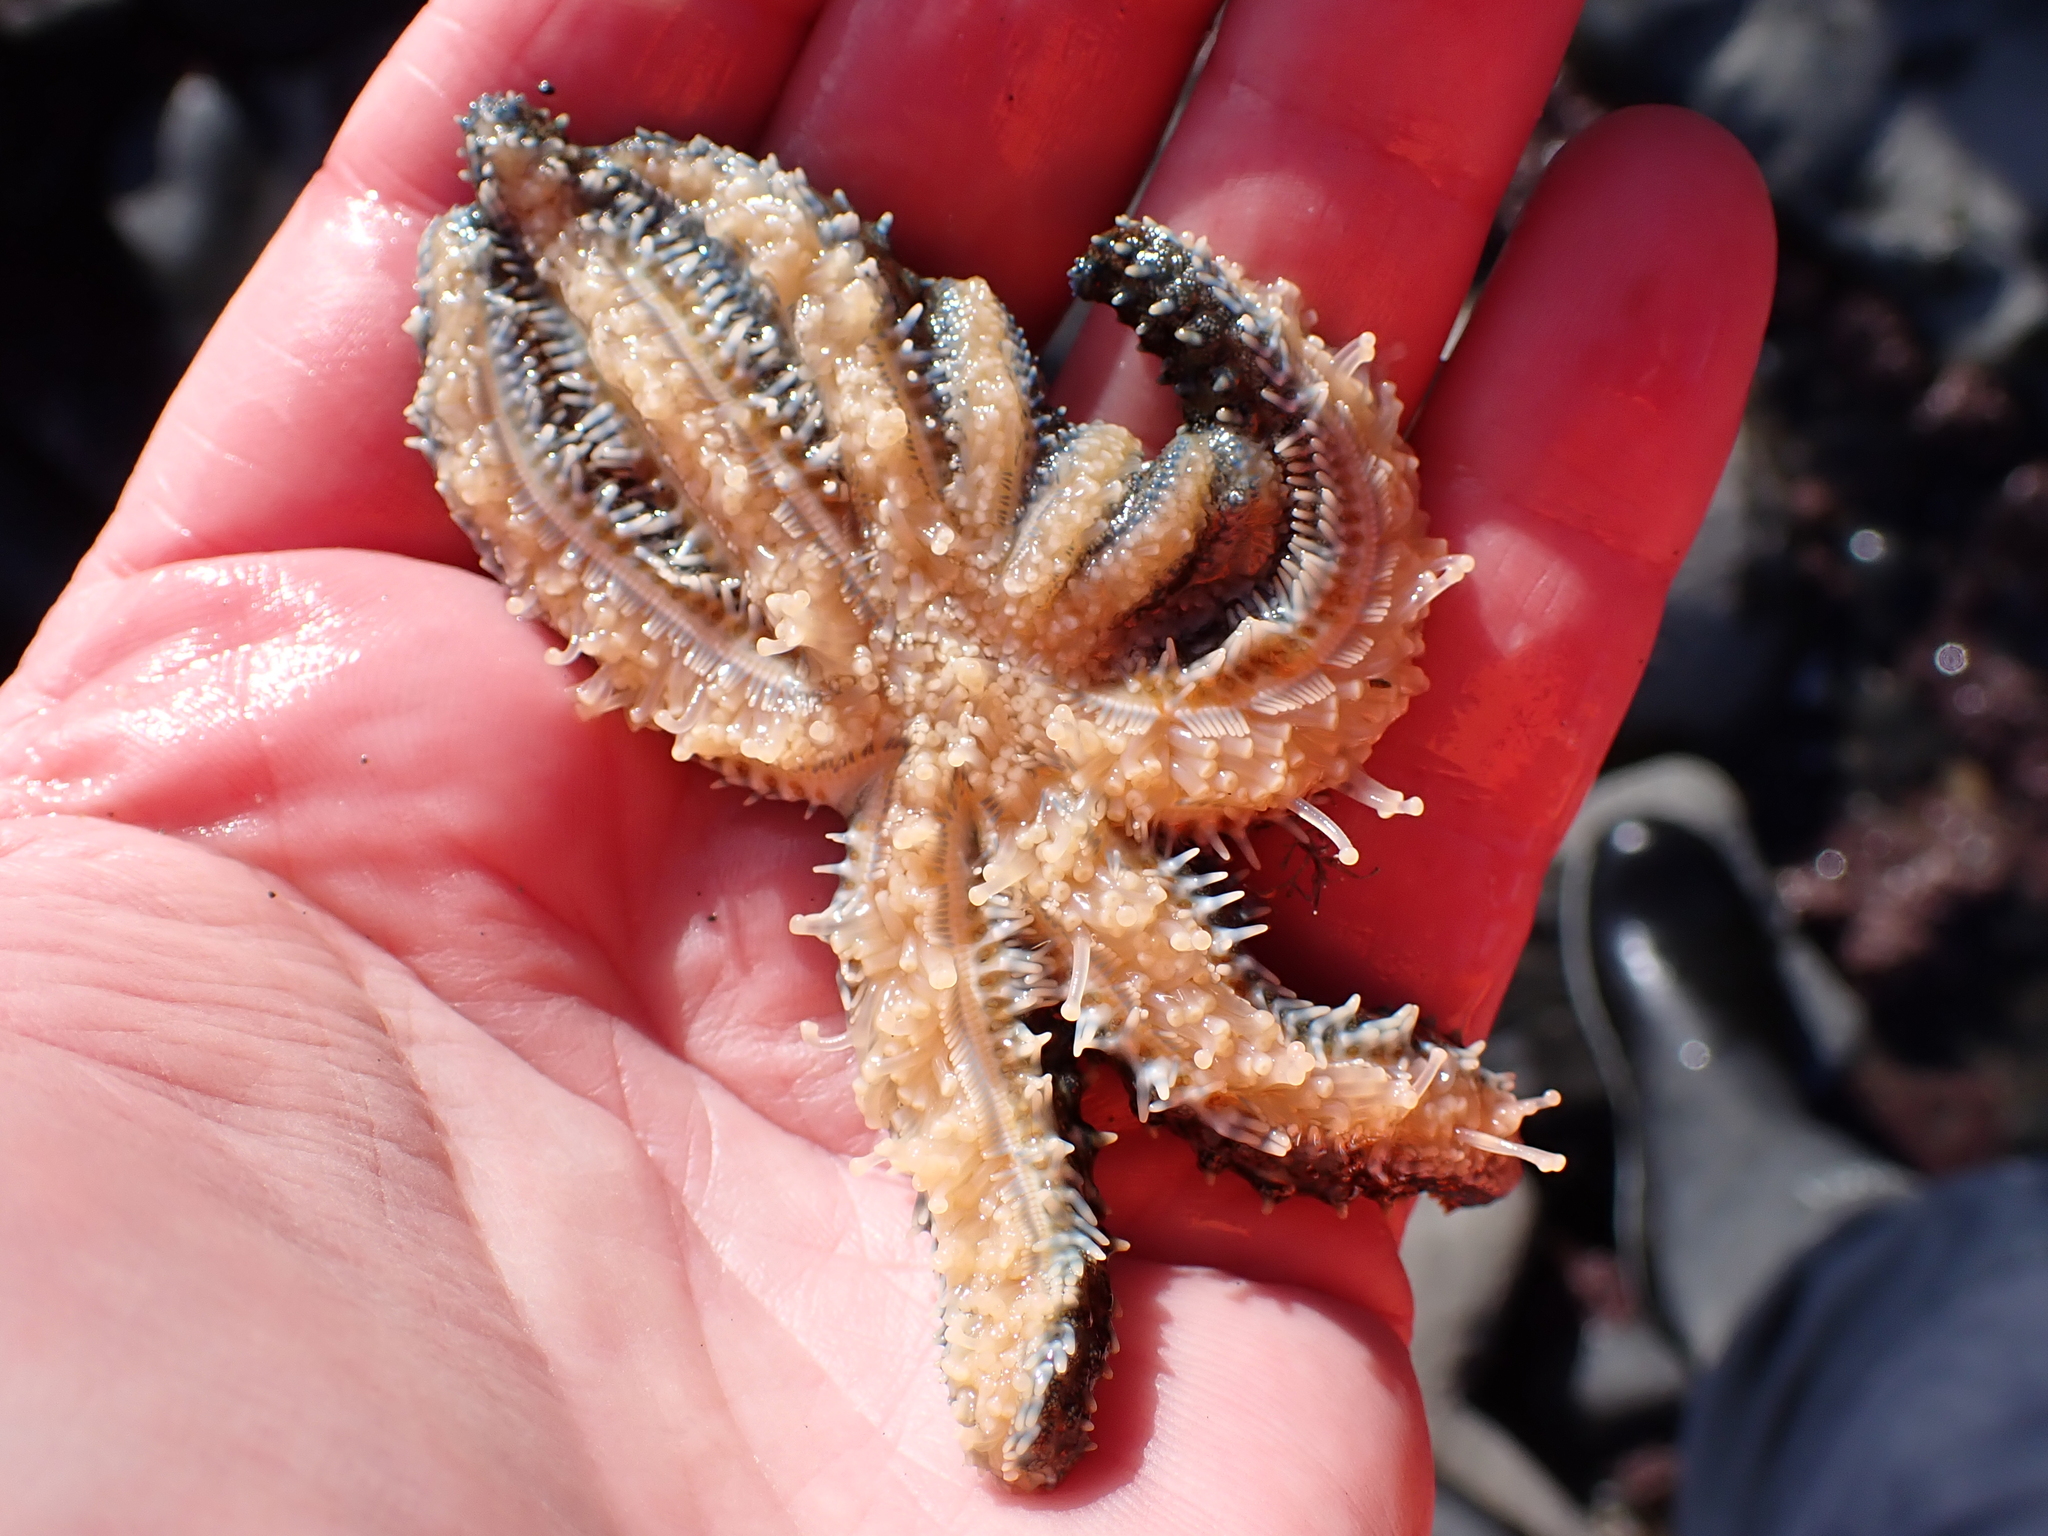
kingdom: Animalia
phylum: Echinodermata
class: Asteroidea
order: Forcipulatida
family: Asteriidae
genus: Coscinasterias
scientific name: Coscinasterias muricata
